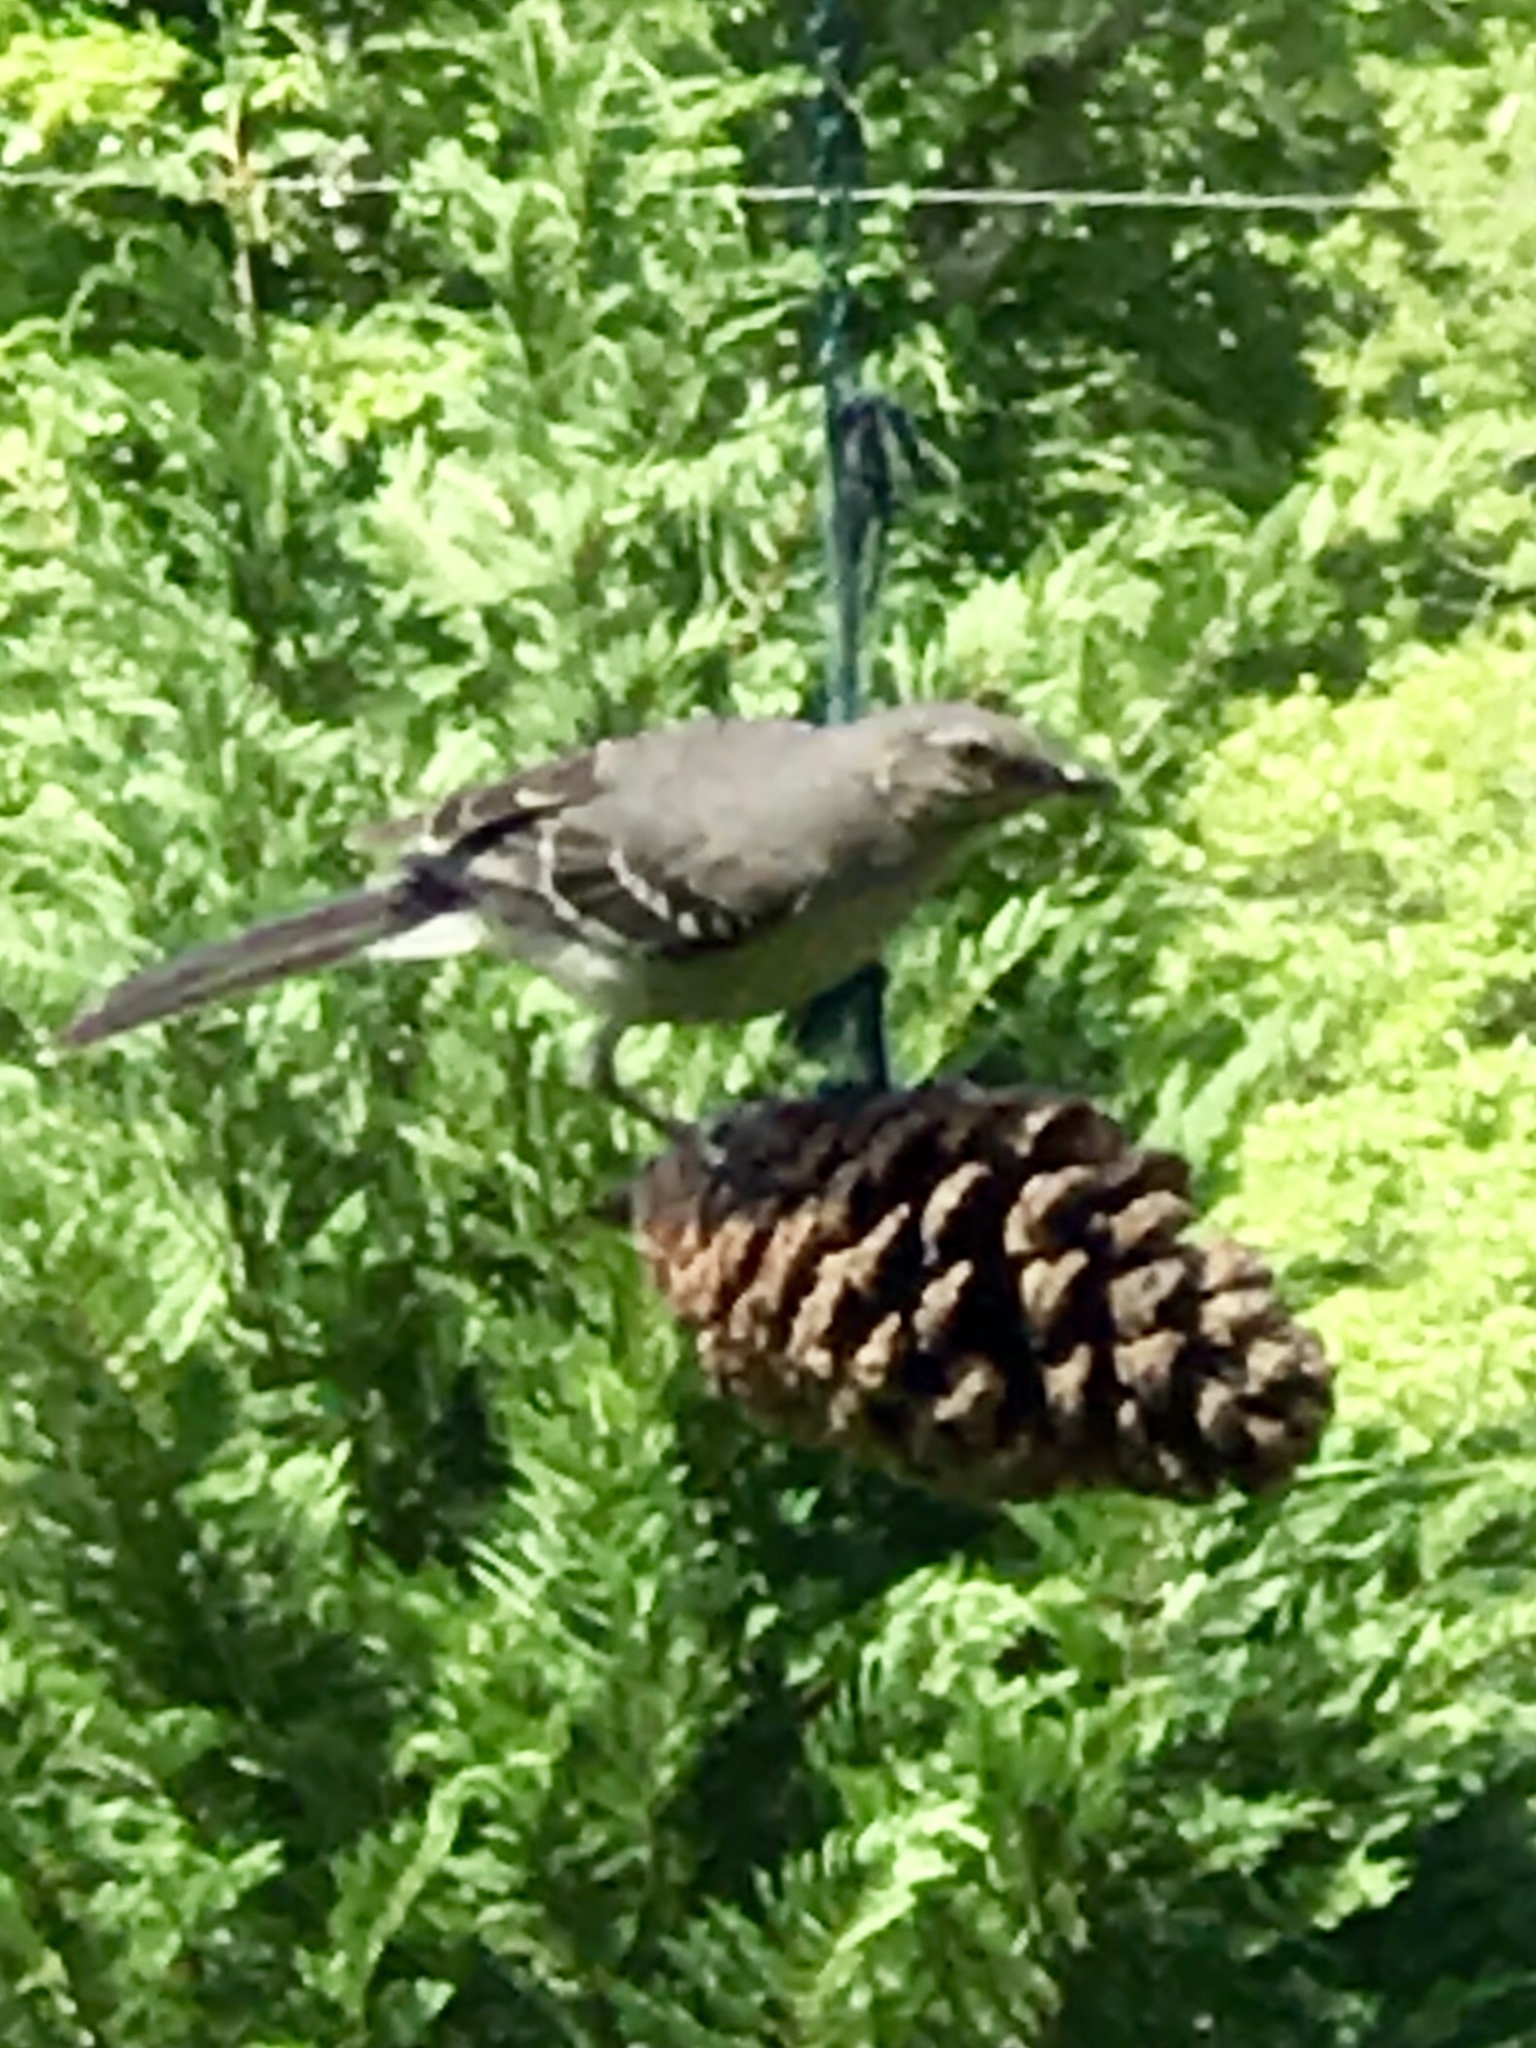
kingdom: Animalia
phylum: Chordata
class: Aves
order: Passeriformes
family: Mimidae
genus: Mimus
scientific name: Mimus polyglottos
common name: Northern mockingbird
